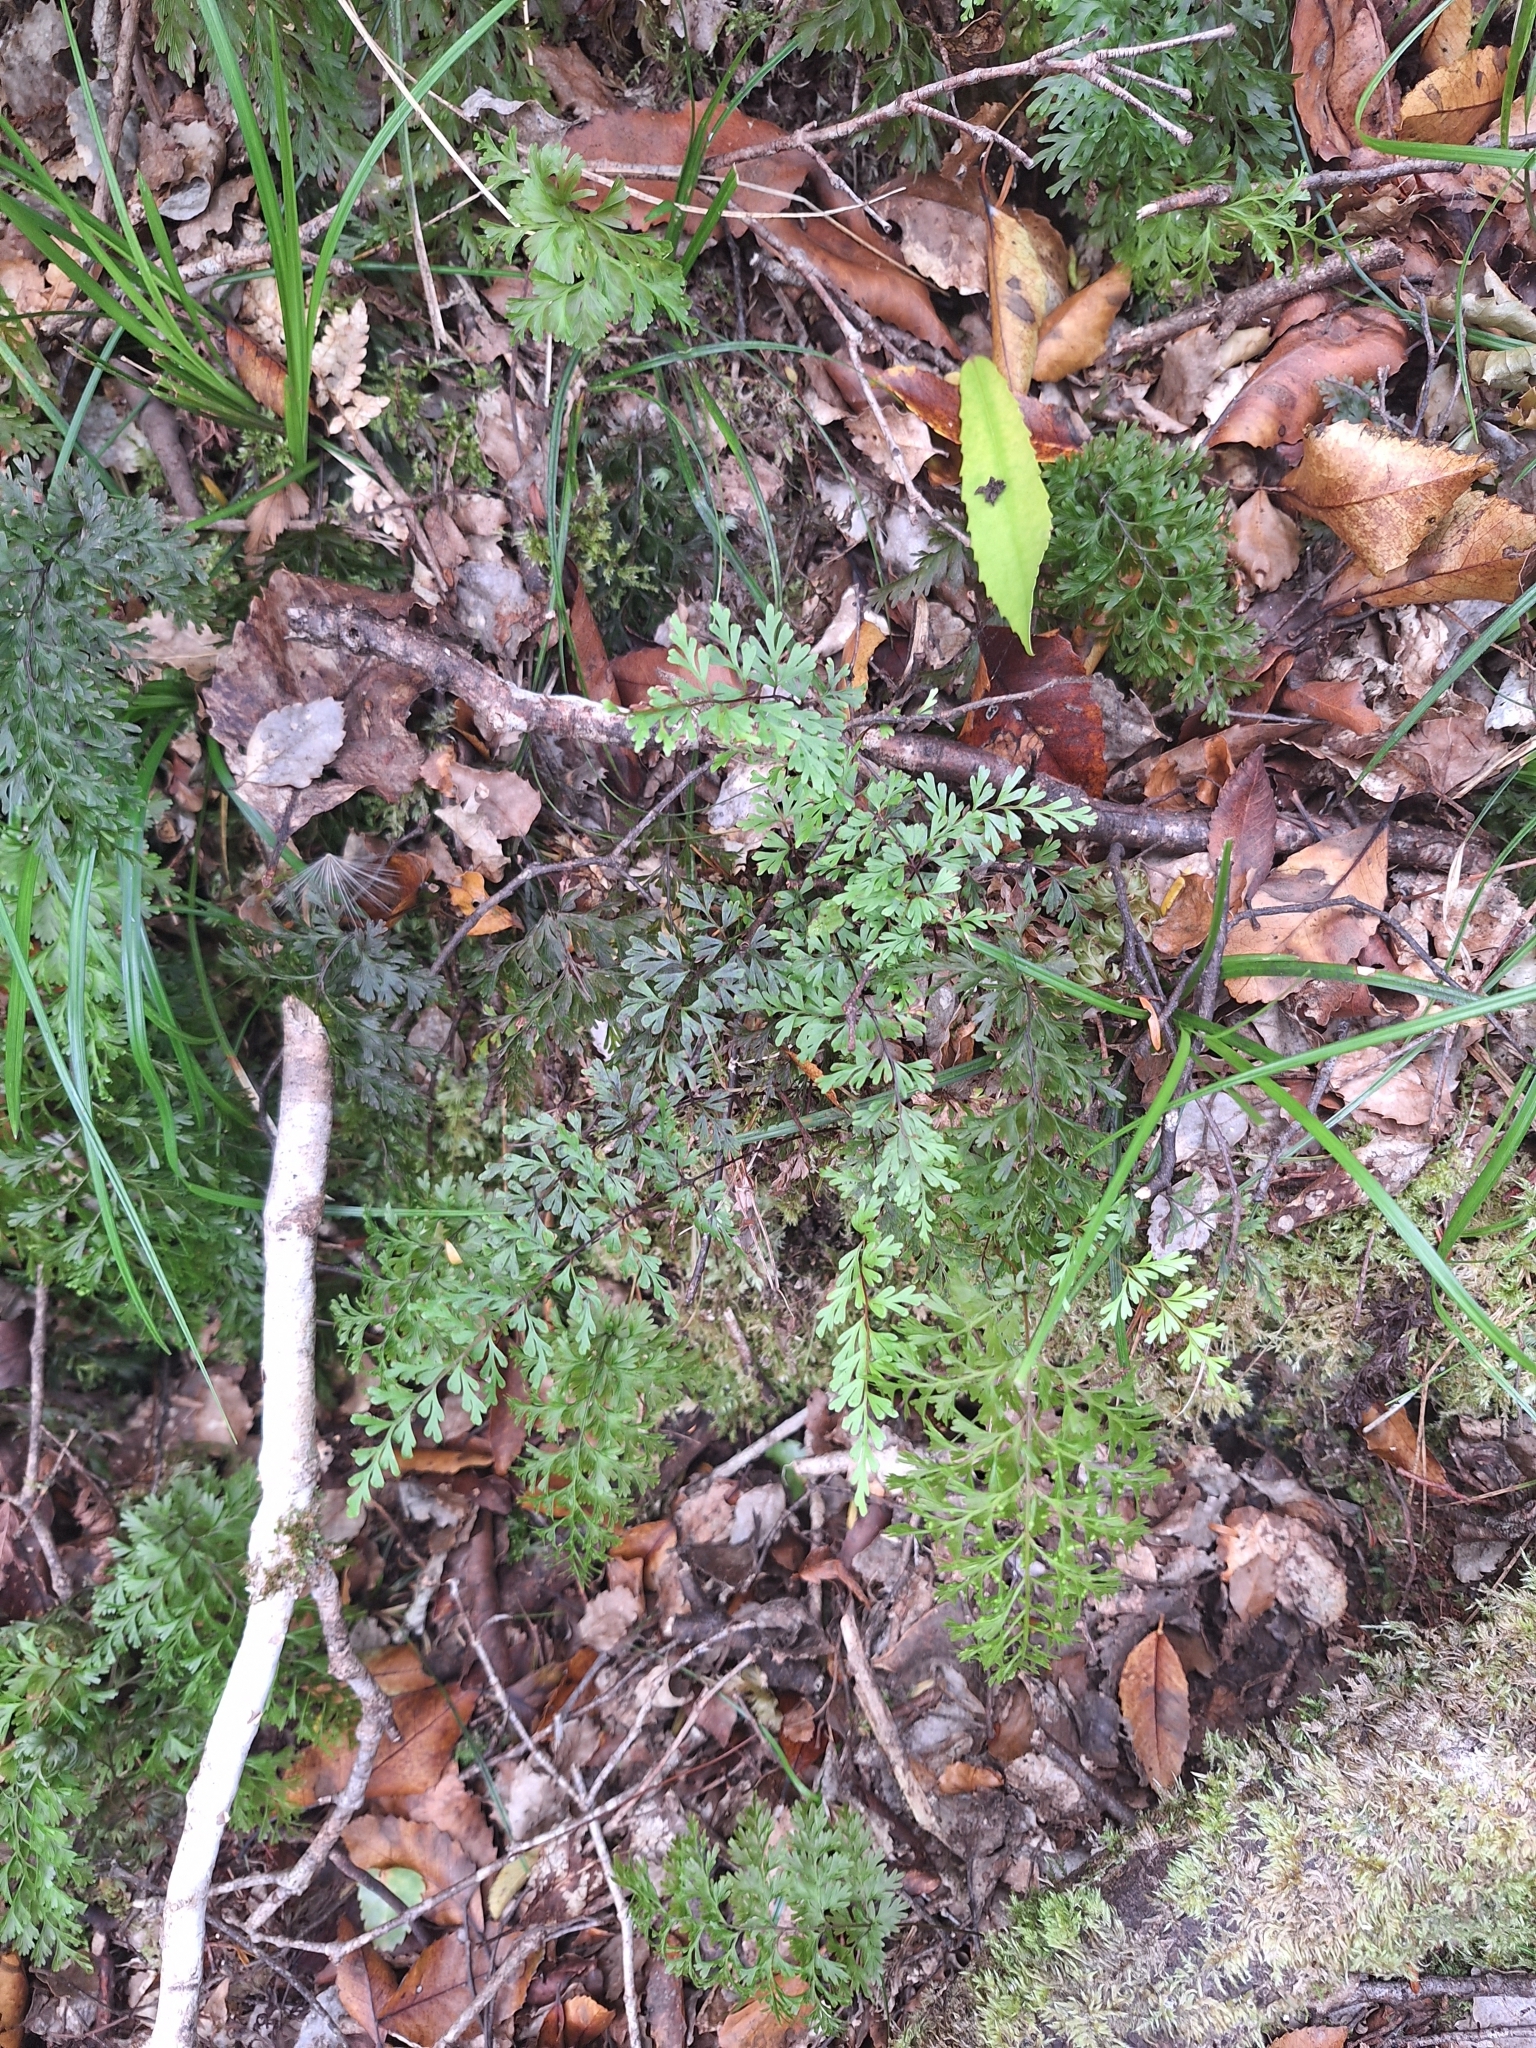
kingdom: Plantae
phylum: Tracheophyta
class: Polypodiopsida
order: Polypodiales
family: Lindsaeaceae
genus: Lindsaea
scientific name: Lindsaea trichomanoides
